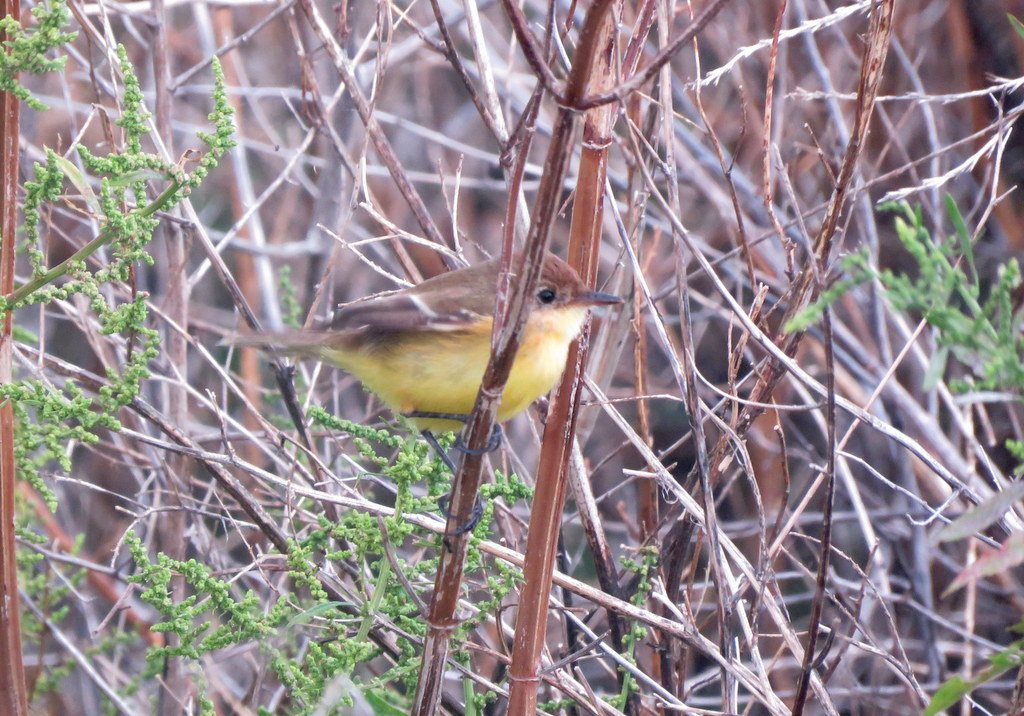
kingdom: Animalia
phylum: Chordata
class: Aves
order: Passeriformes
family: Tyrannidae
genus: Pseudocolopteryx
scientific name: Pseudocolopteryx flaviventris
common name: Warbling doradito
